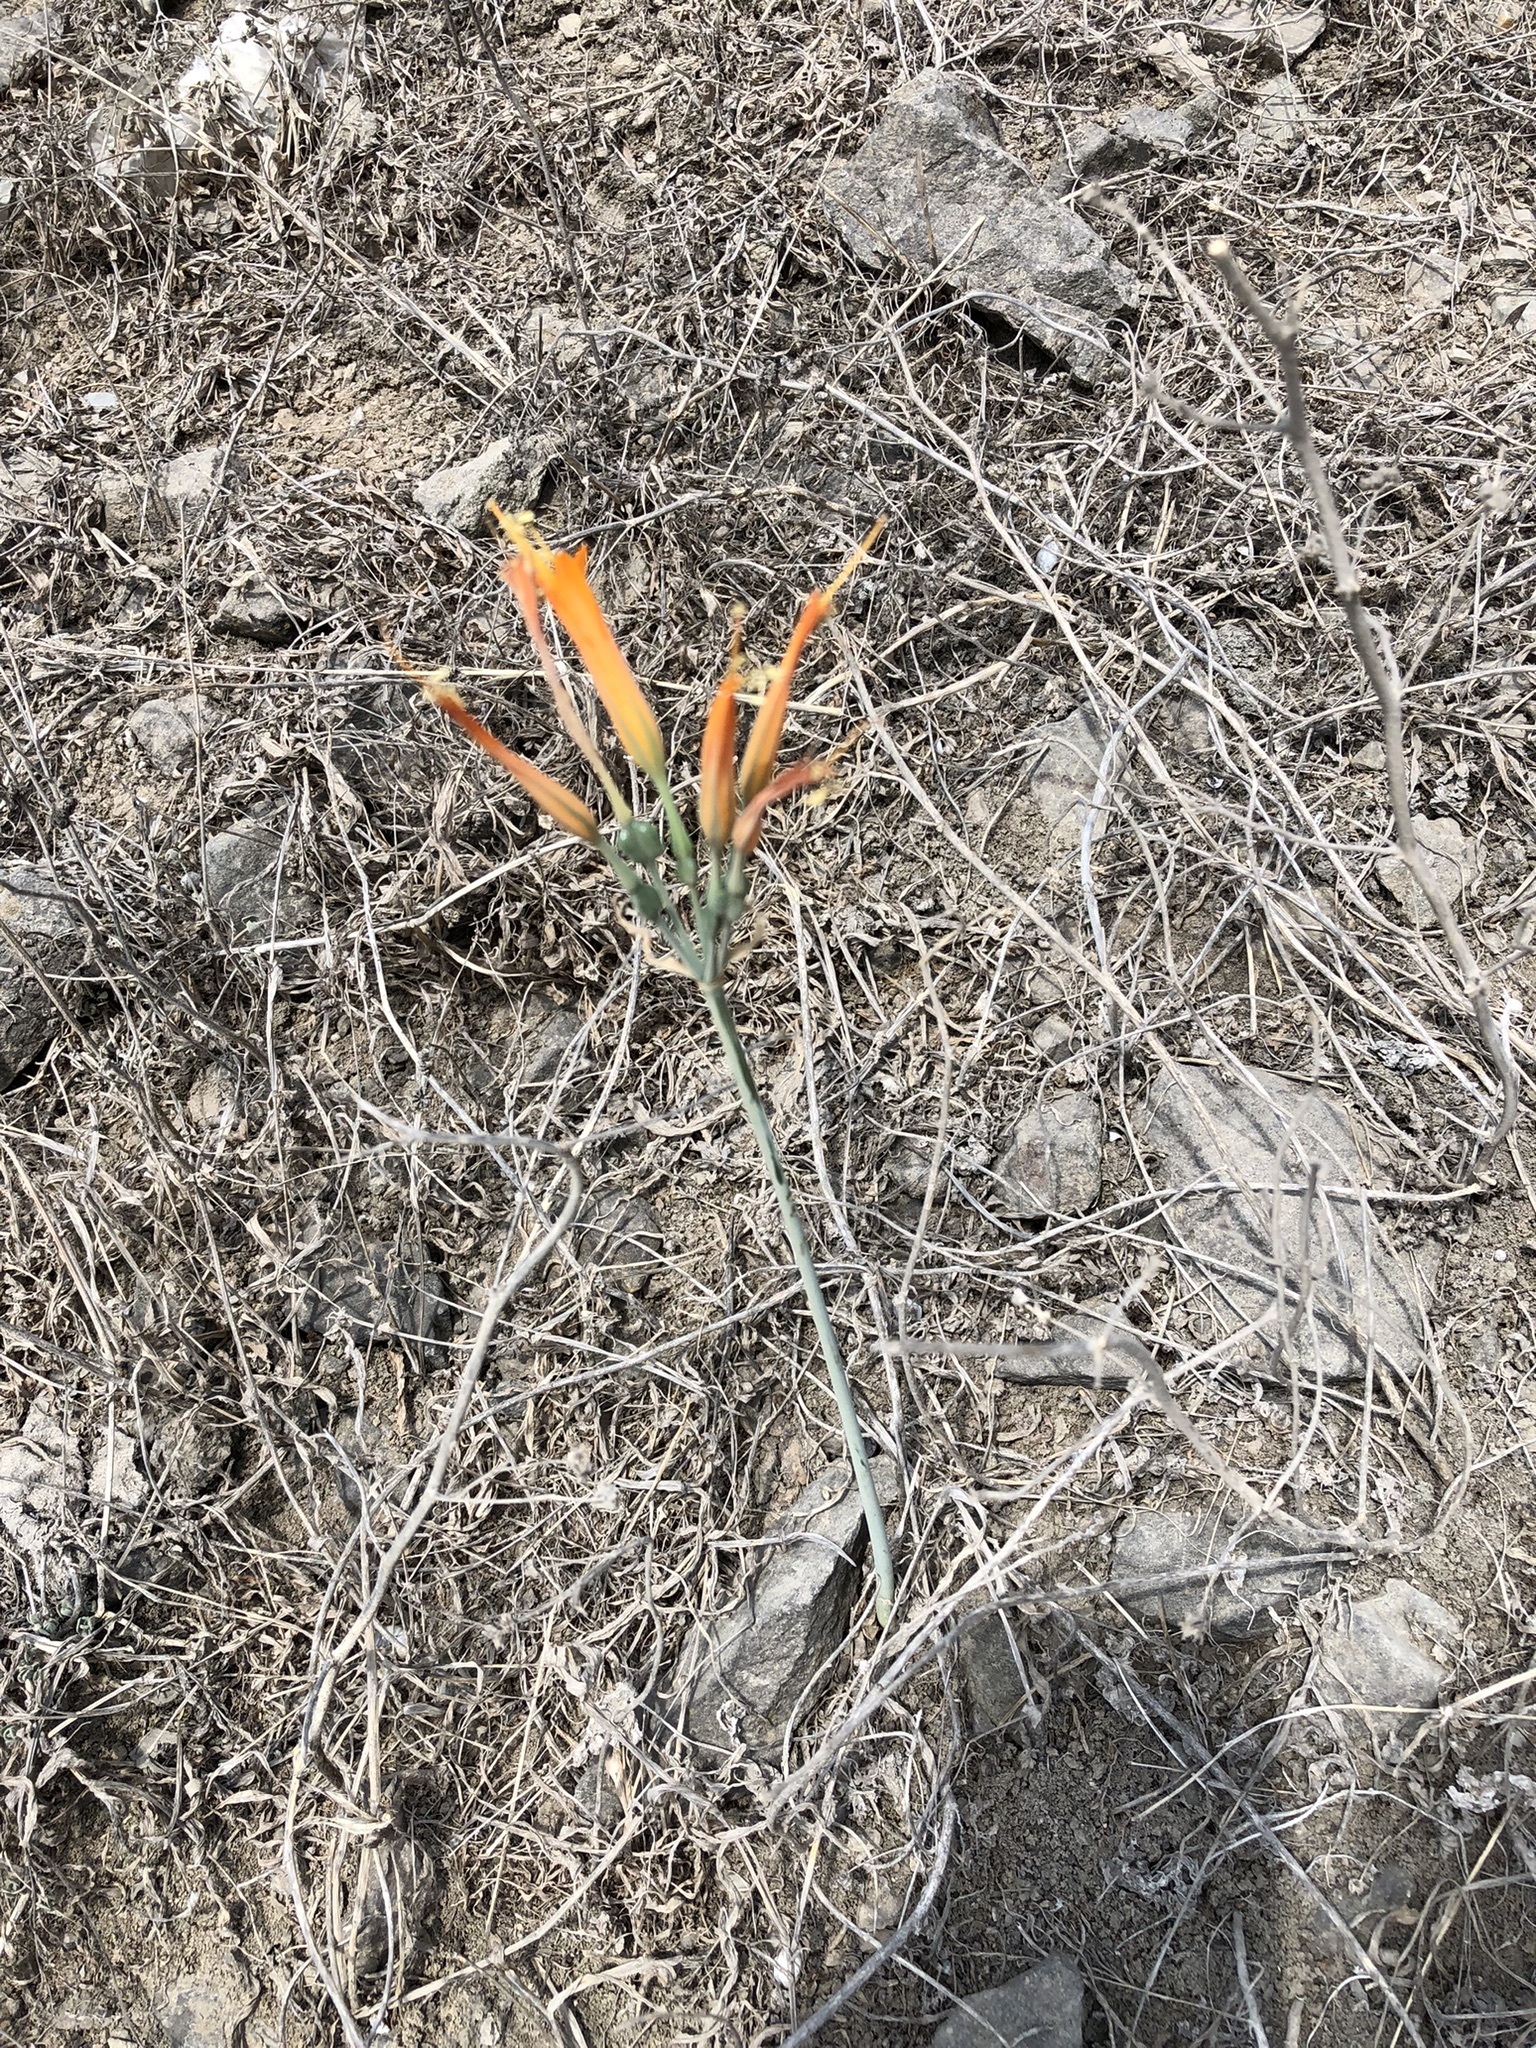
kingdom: Plantae
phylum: Tracheophyta
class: Liliopsida
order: Asparagales
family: Amaryllidaceae
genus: Stenomesson
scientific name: Stenomesson flavum
